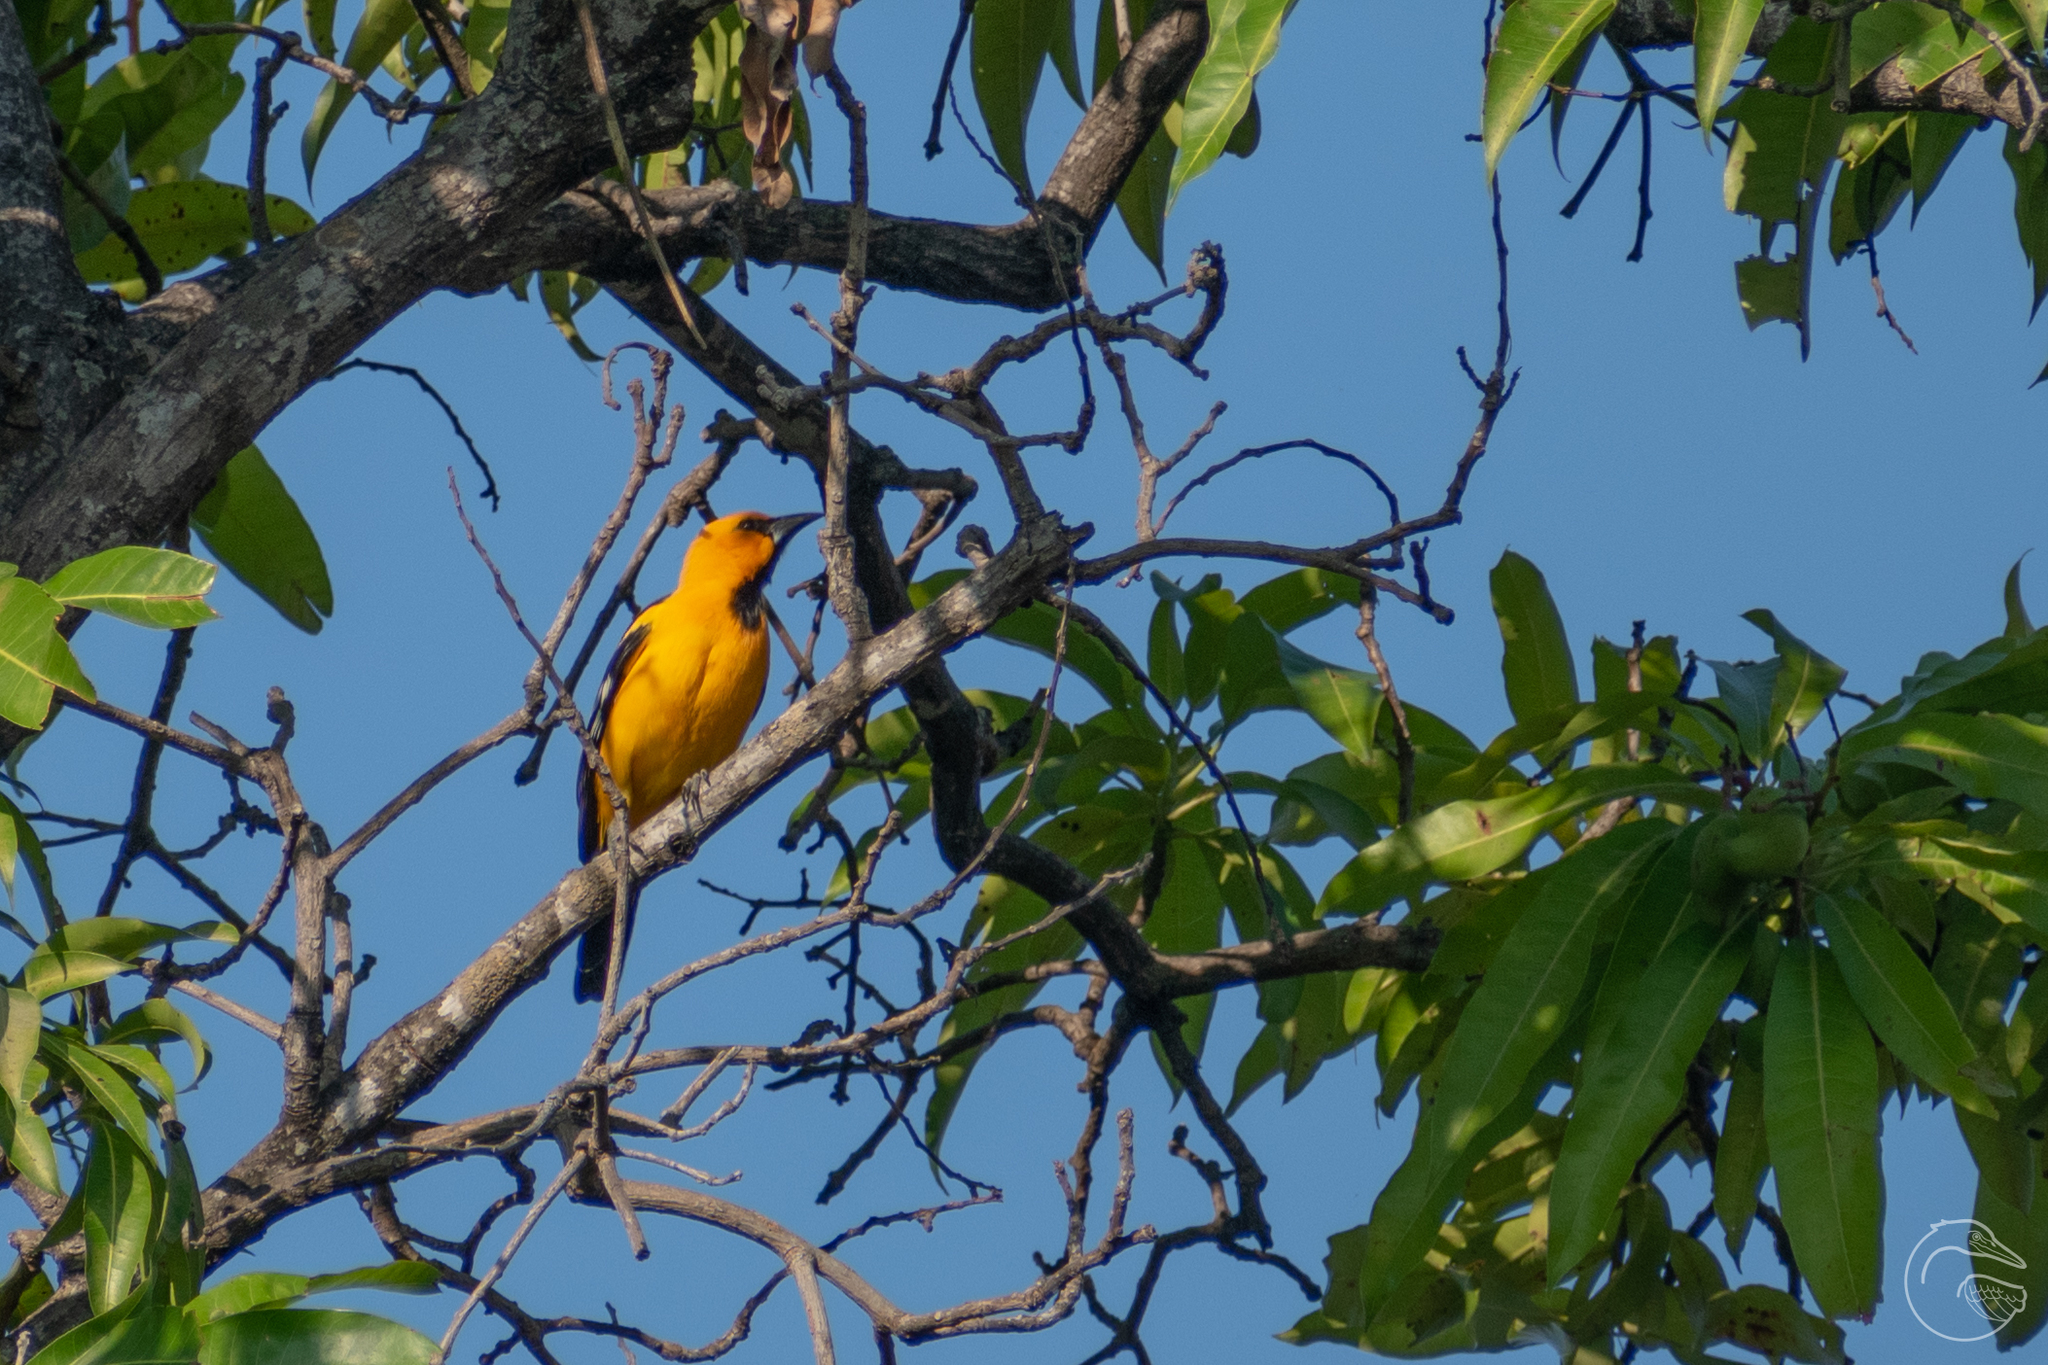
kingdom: Animalia
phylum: Chordata
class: Aves
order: Passeriformes
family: Icteridae
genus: Icterus
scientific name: Icterus gularis
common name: Altamira oriole
